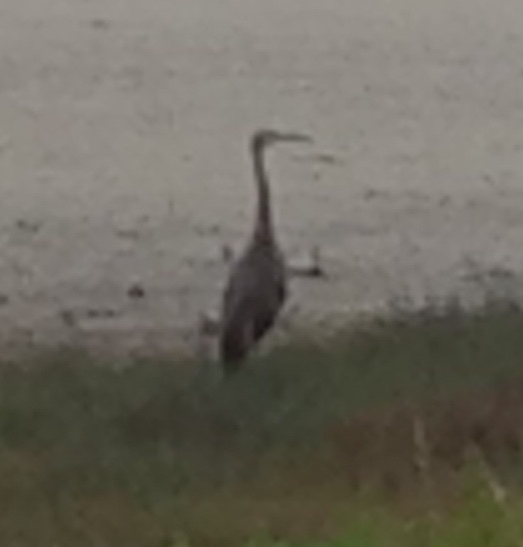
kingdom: Animalia
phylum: Chordata
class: Aves
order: Pelecaniformes
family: Ardeidae
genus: Egretta
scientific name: Egretta novaehollandiae
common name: White-faced heron
